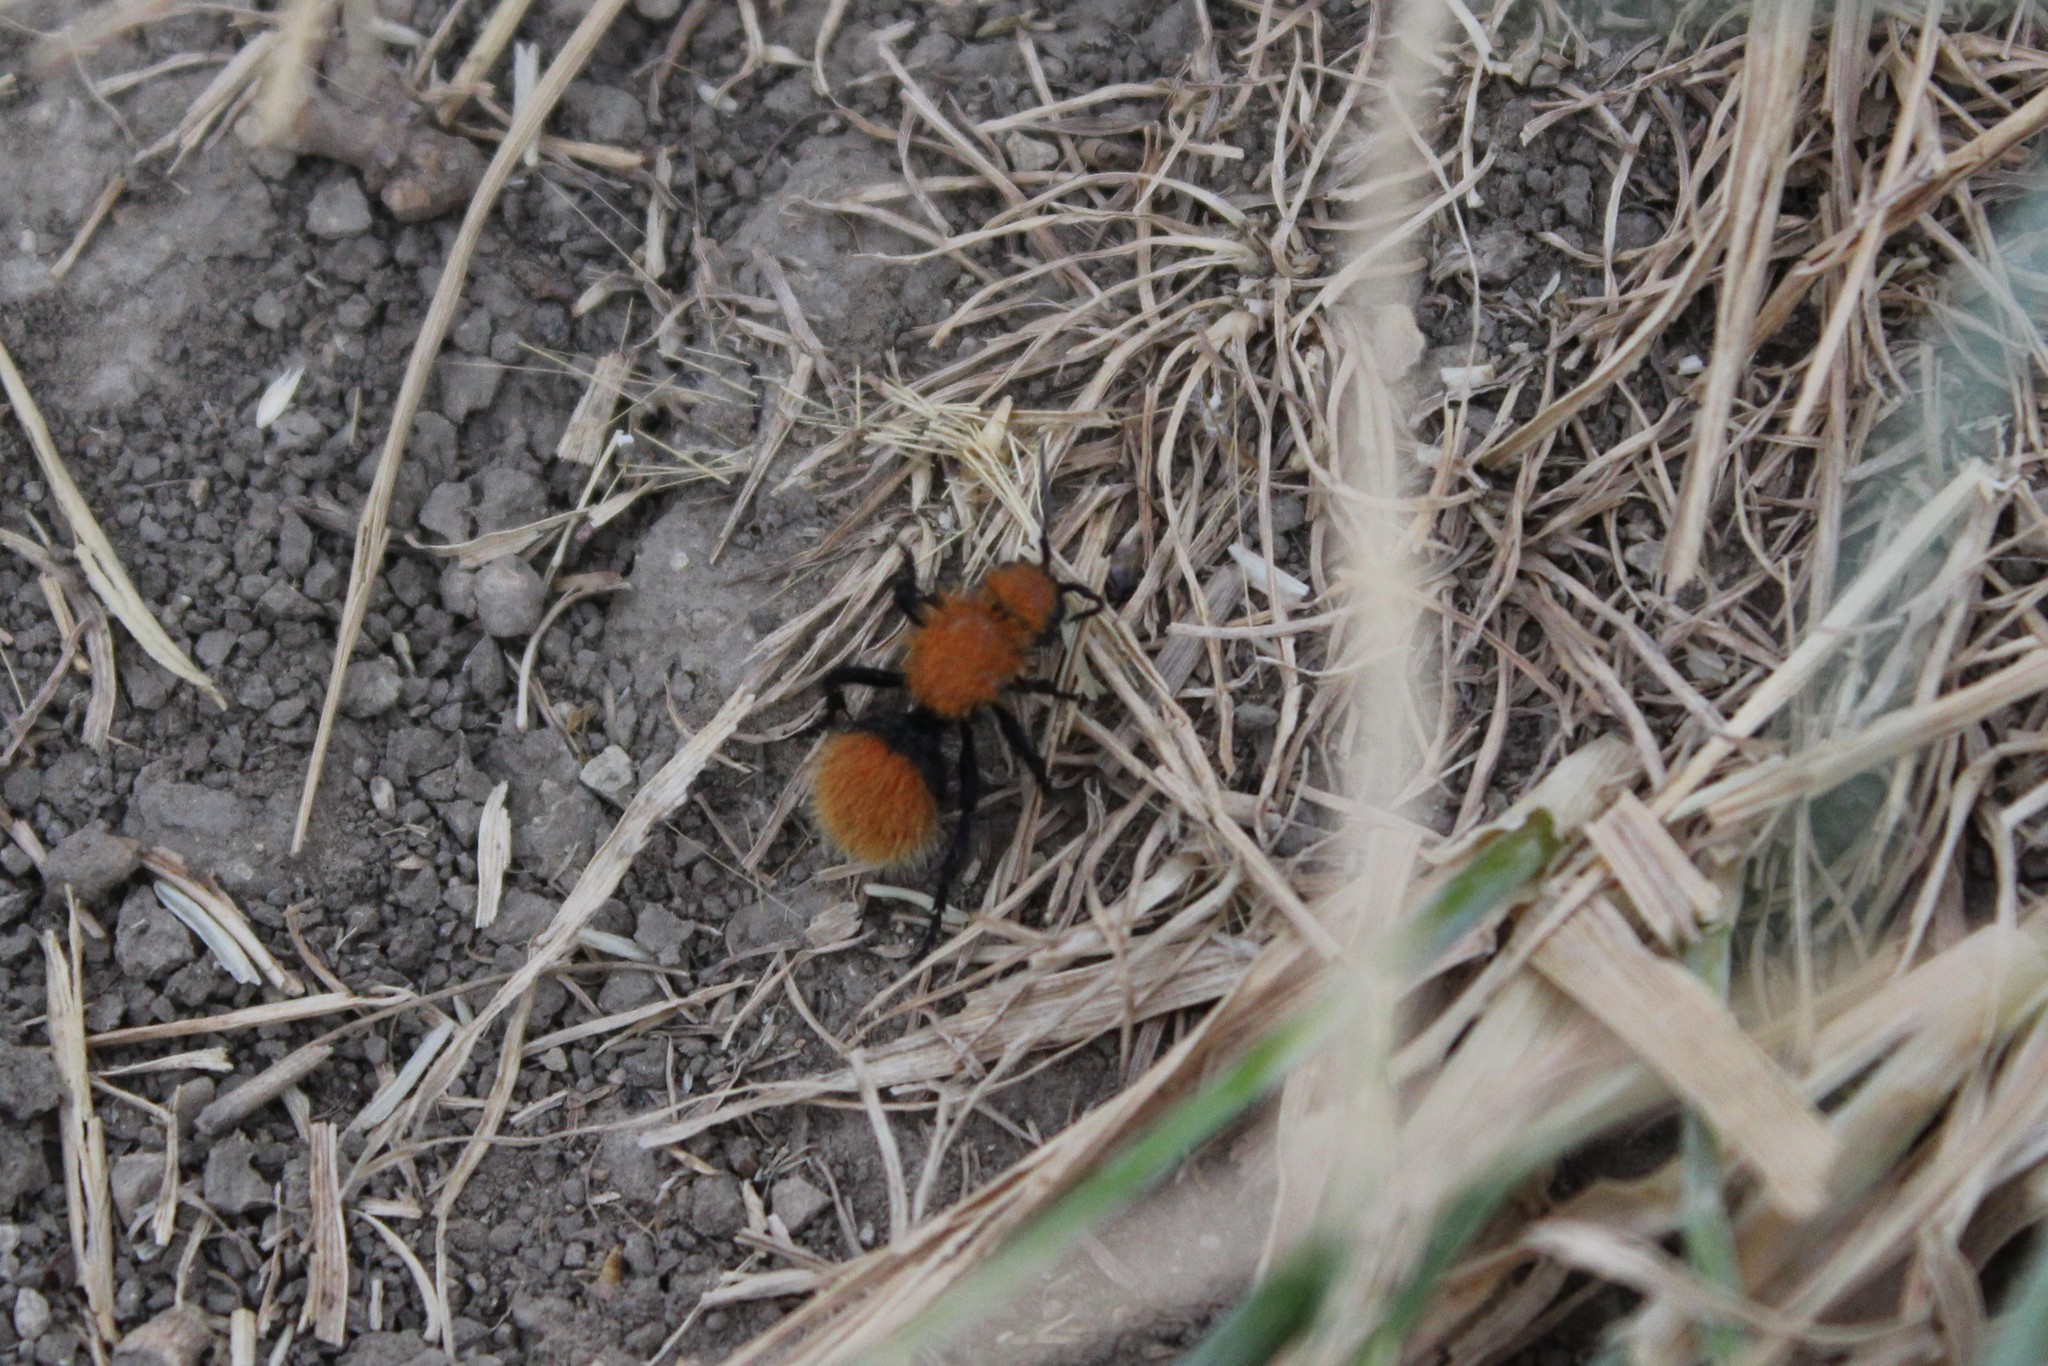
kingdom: Animalia
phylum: Arthropoda
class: Insecta
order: Hymenoptera
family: Mutillidae
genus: Dasymutilla
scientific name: Dasymutilla vestita
